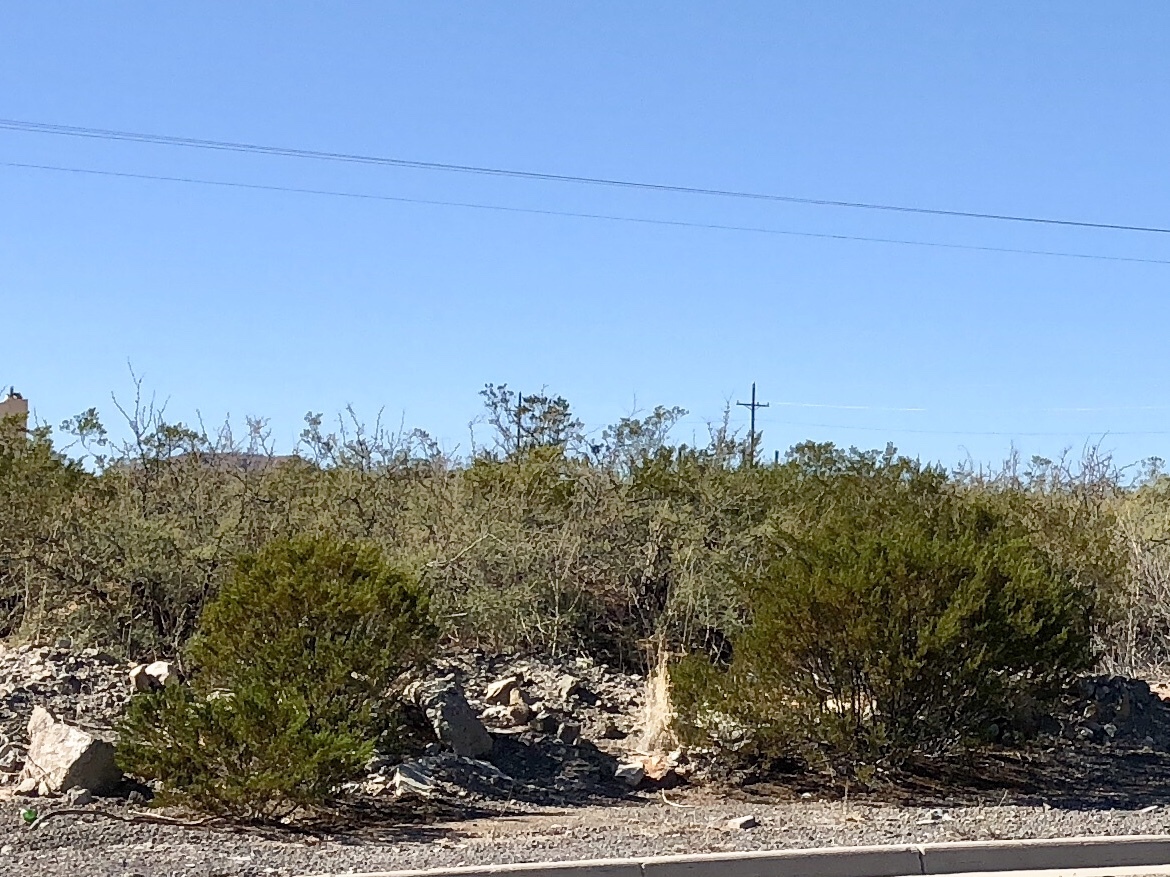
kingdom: Plantae
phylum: Tracheophyta
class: Magnoliopsida
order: Zygophyllales
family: Zygophyllaceae
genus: Larrea
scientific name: Larrea tridentata
